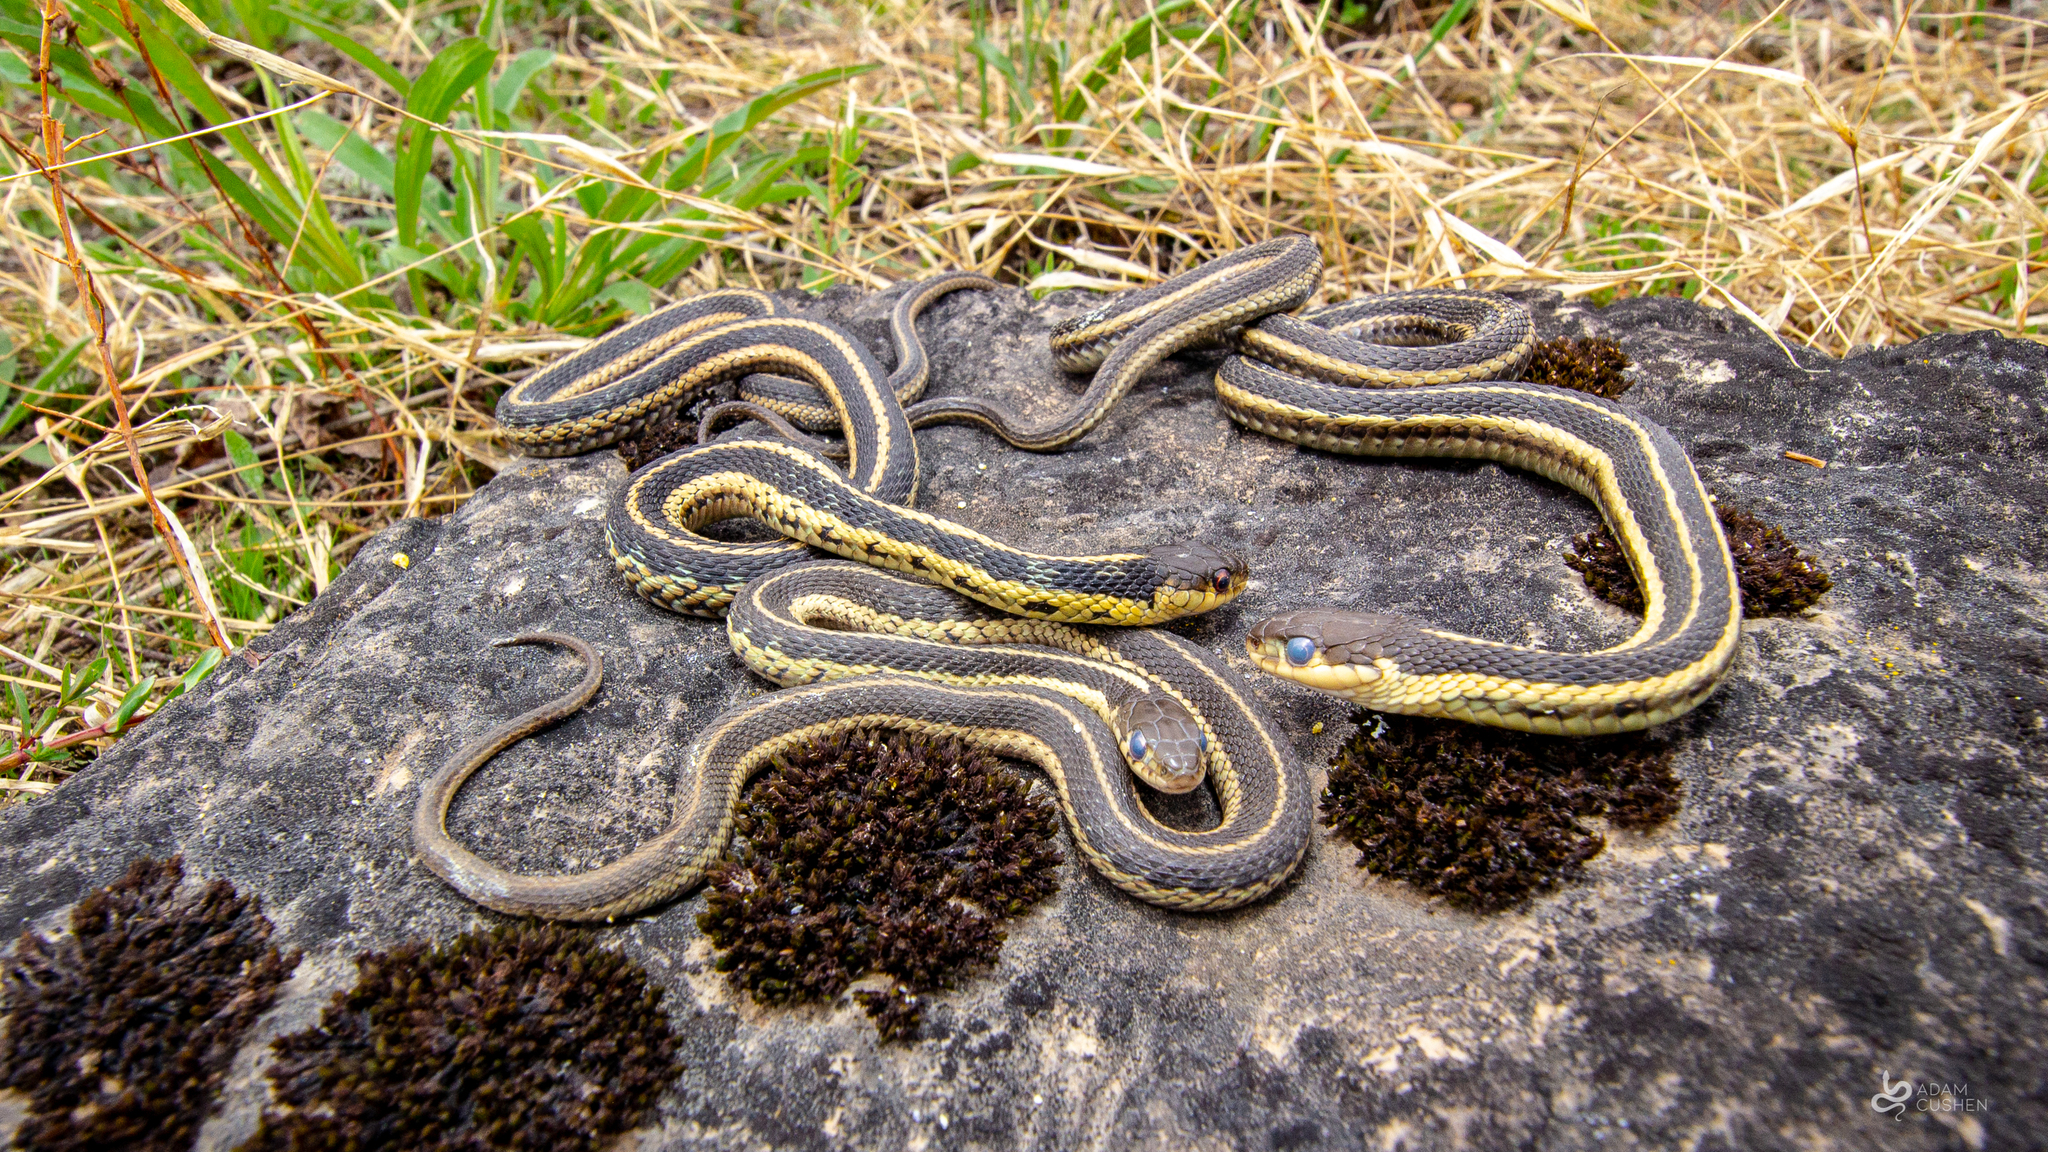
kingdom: Animalia
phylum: Chordata
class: Squamata
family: Colubridae
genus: Thamnophis
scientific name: Thamnophis sirtalis
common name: Common garter snake
